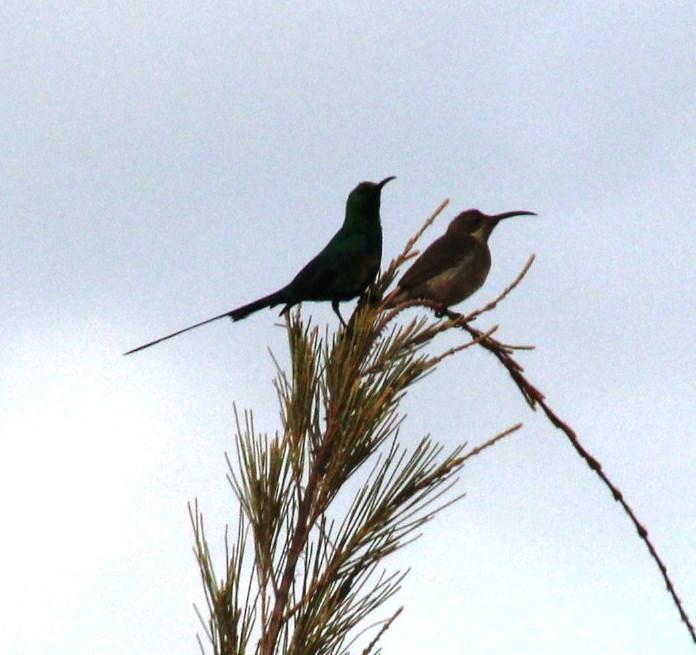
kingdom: Animalia
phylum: Chordata
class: Aves
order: Passeriformes
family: Nectariniidae
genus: Nectarinia
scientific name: Nectarinia famosa
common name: Malachite sunbird
